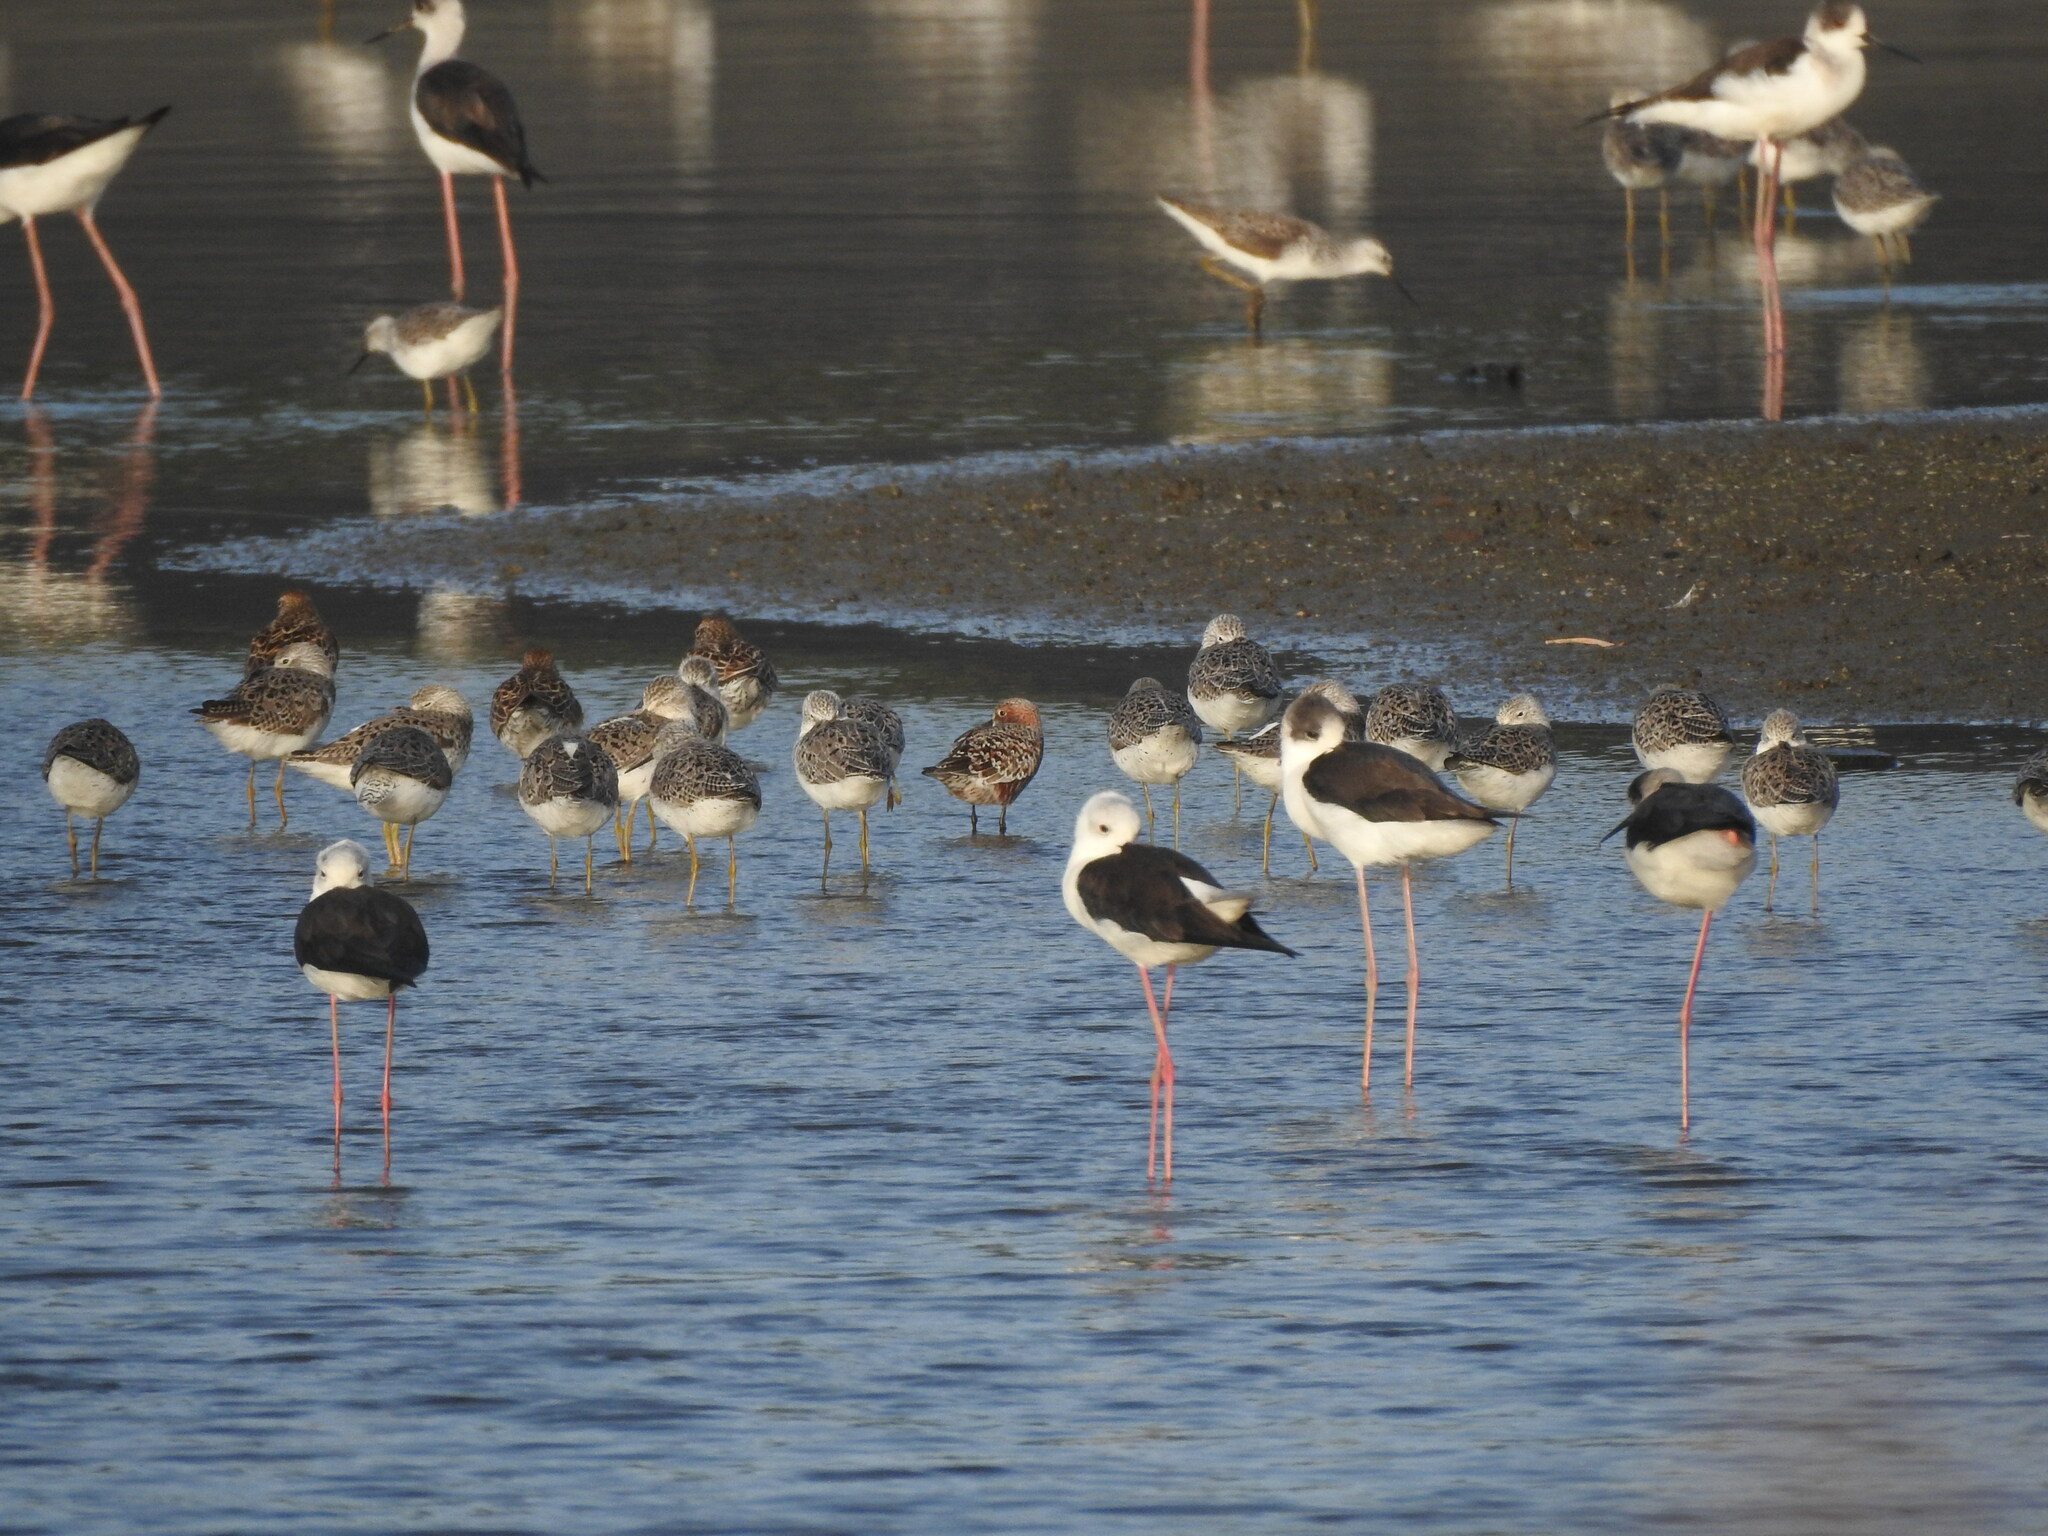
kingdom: Animalia
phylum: Chordata
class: Aves
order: Charadriiformes
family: Scolopacidae
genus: Tringa
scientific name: Tringa stagnatilis
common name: Marsh sandpiper
